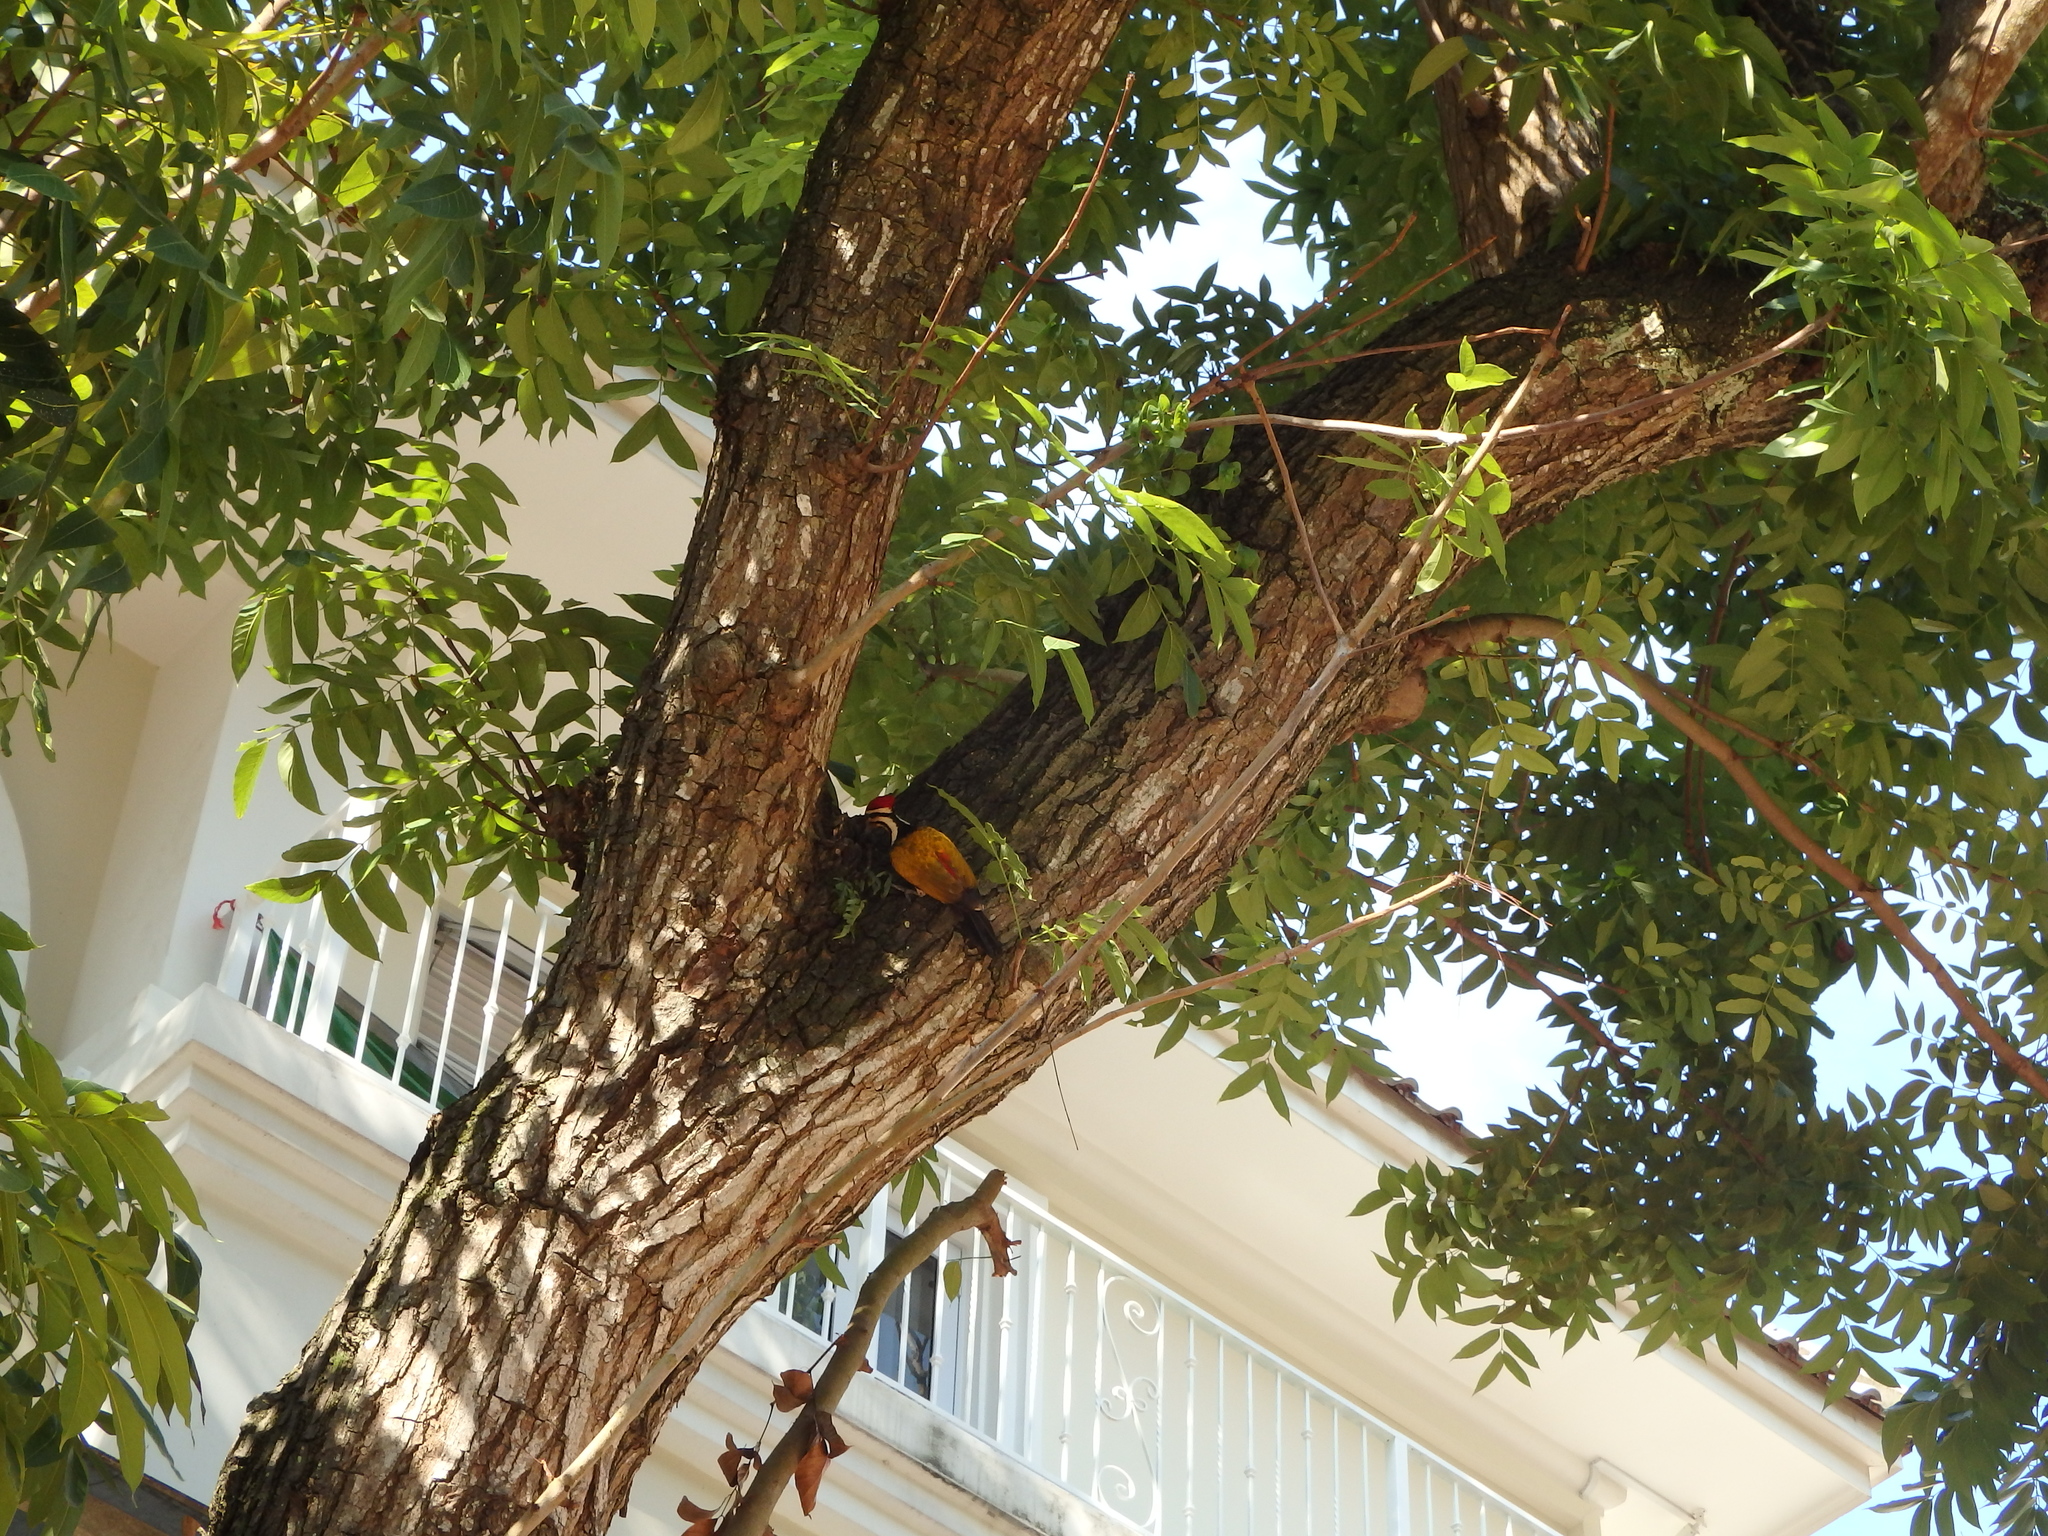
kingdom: Animalia
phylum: Chordata
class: Aves
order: Piciformes
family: Picidae
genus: Dinopium
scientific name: Dinopium javanense
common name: Common flameback
